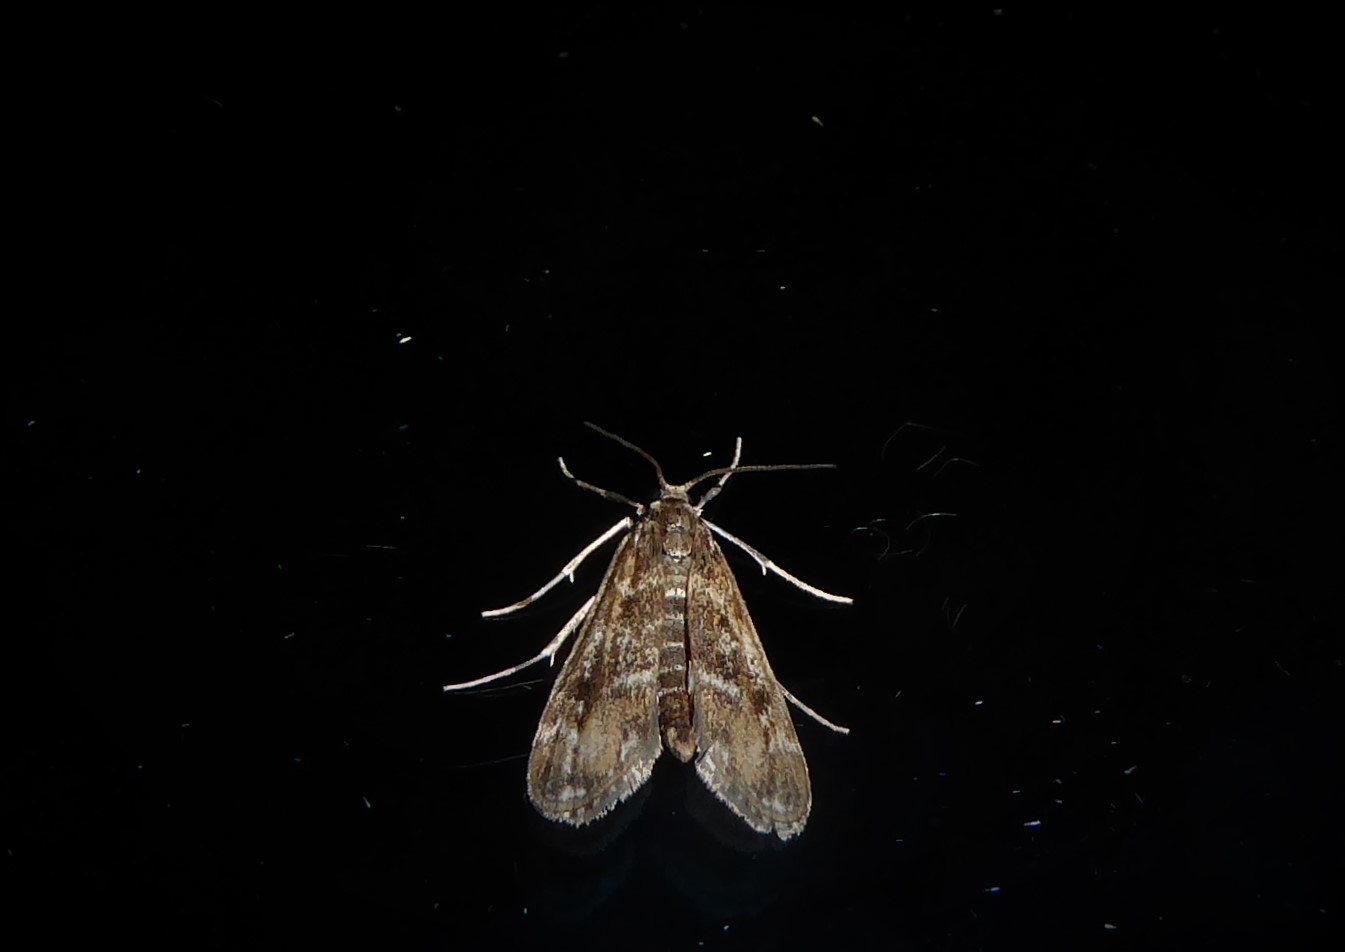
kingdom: Animalia
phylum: Arthropoda
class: Insecta
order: Lepidoptera
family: Crambidae
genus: Hygraula
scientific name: Hygraula nitens
